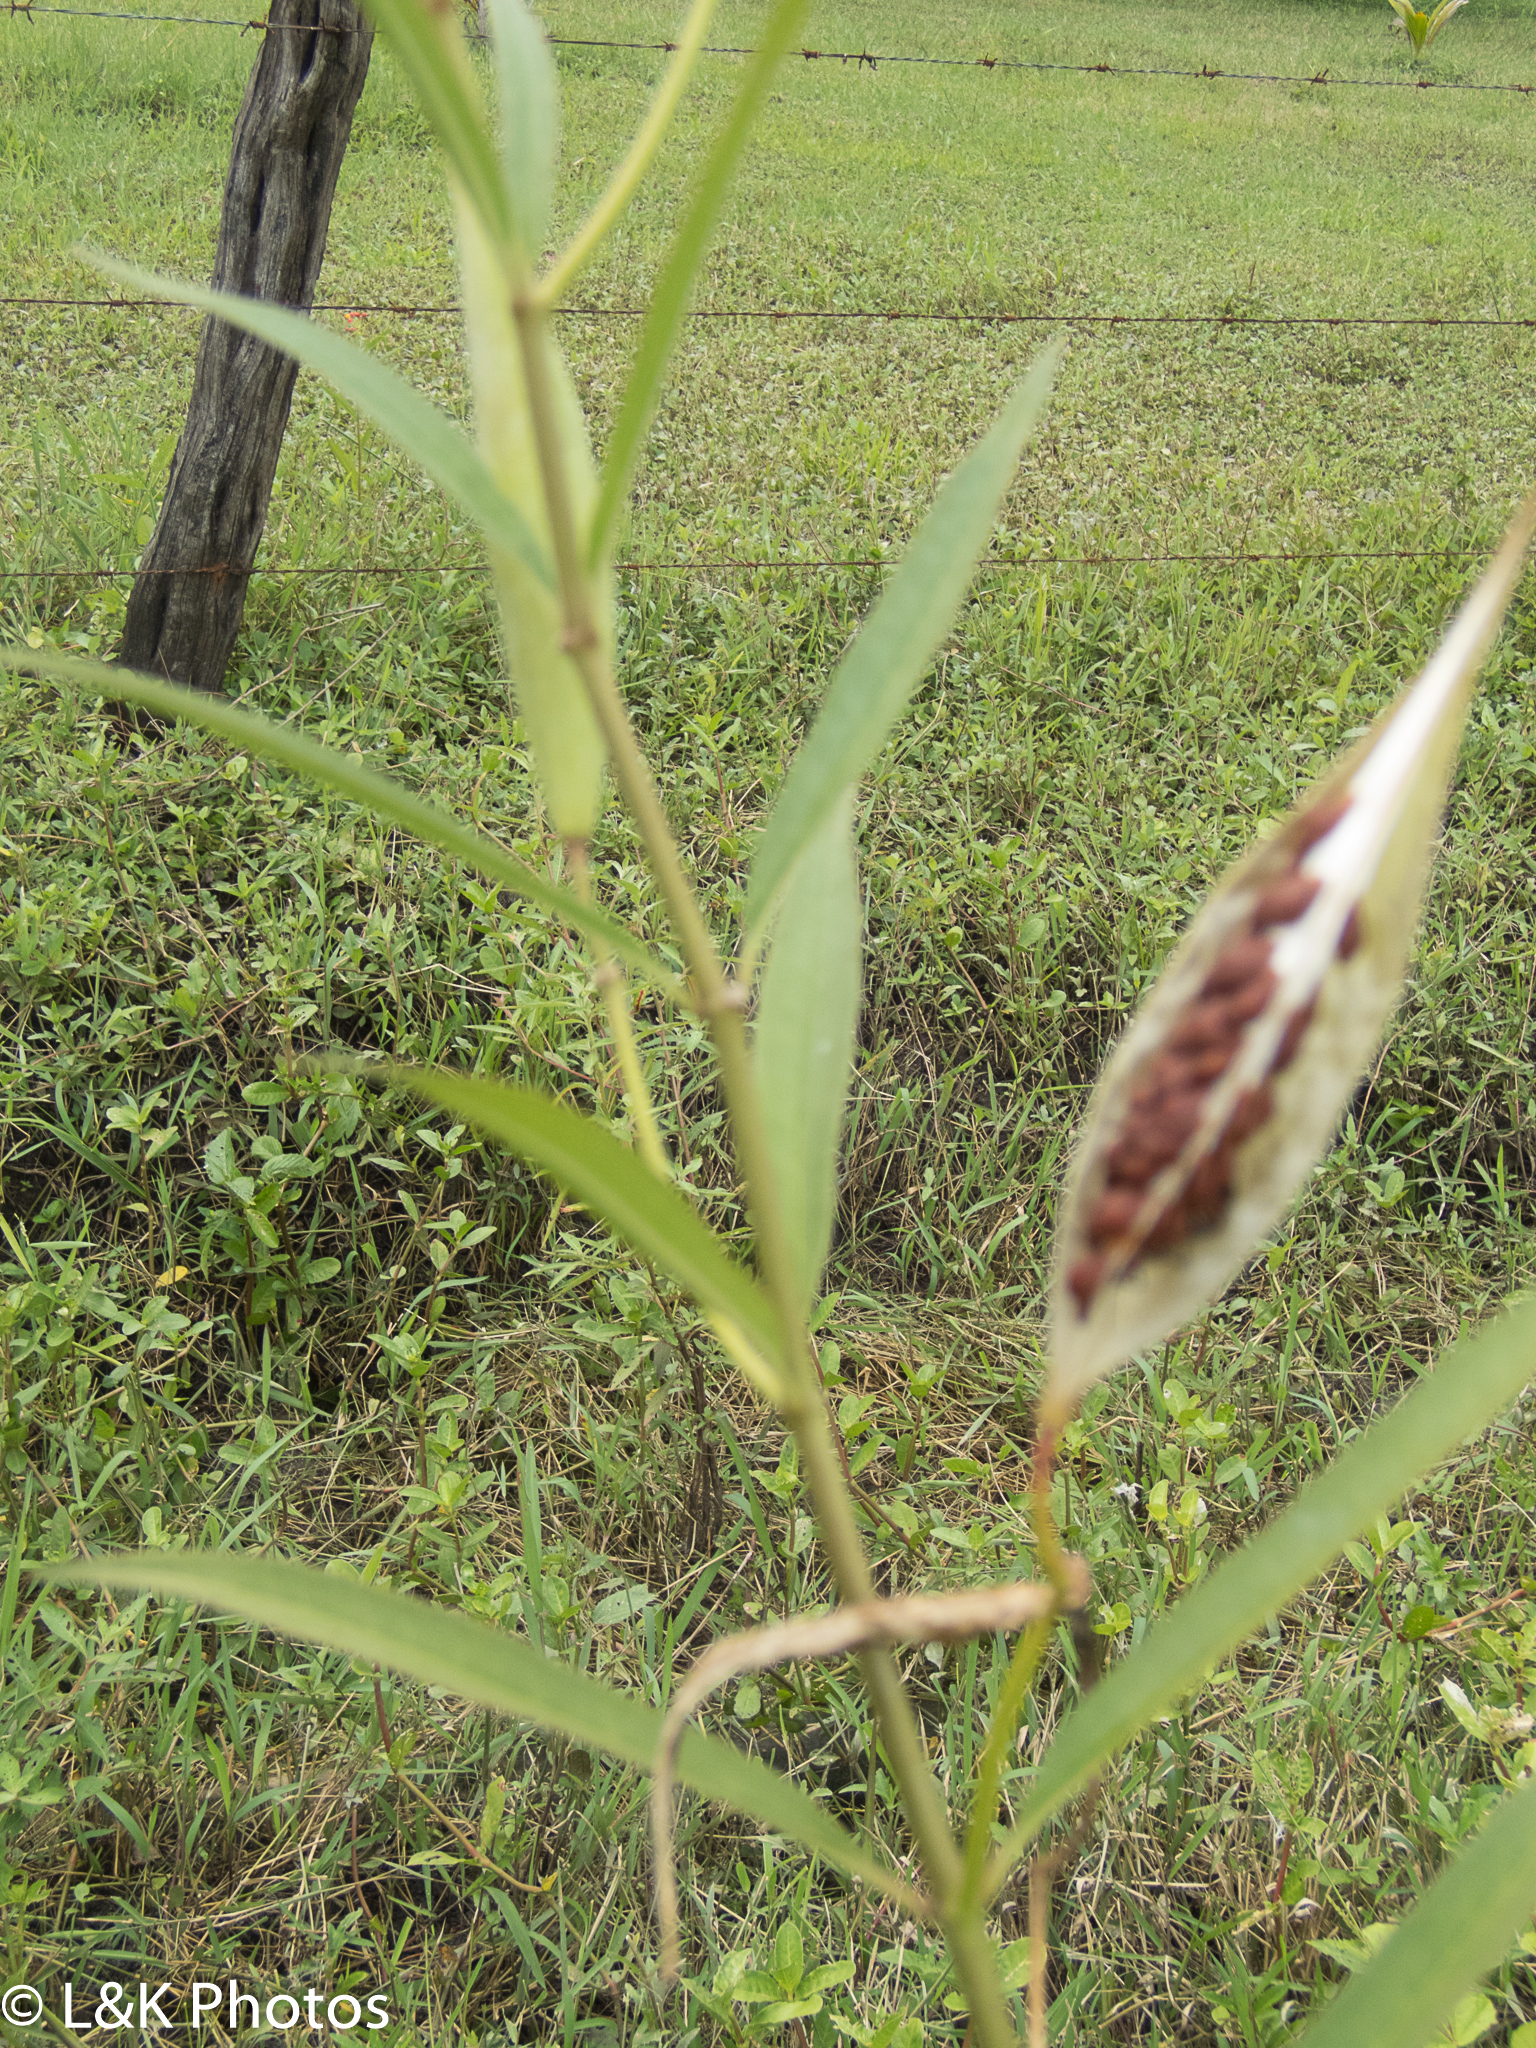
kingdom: Plantae
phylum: Tracheophyta
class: Magnoliopsida
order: Gentianales
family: Apocynaceae
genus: Asclepias
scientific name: Asclepias curassavica
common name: Bloodflower
